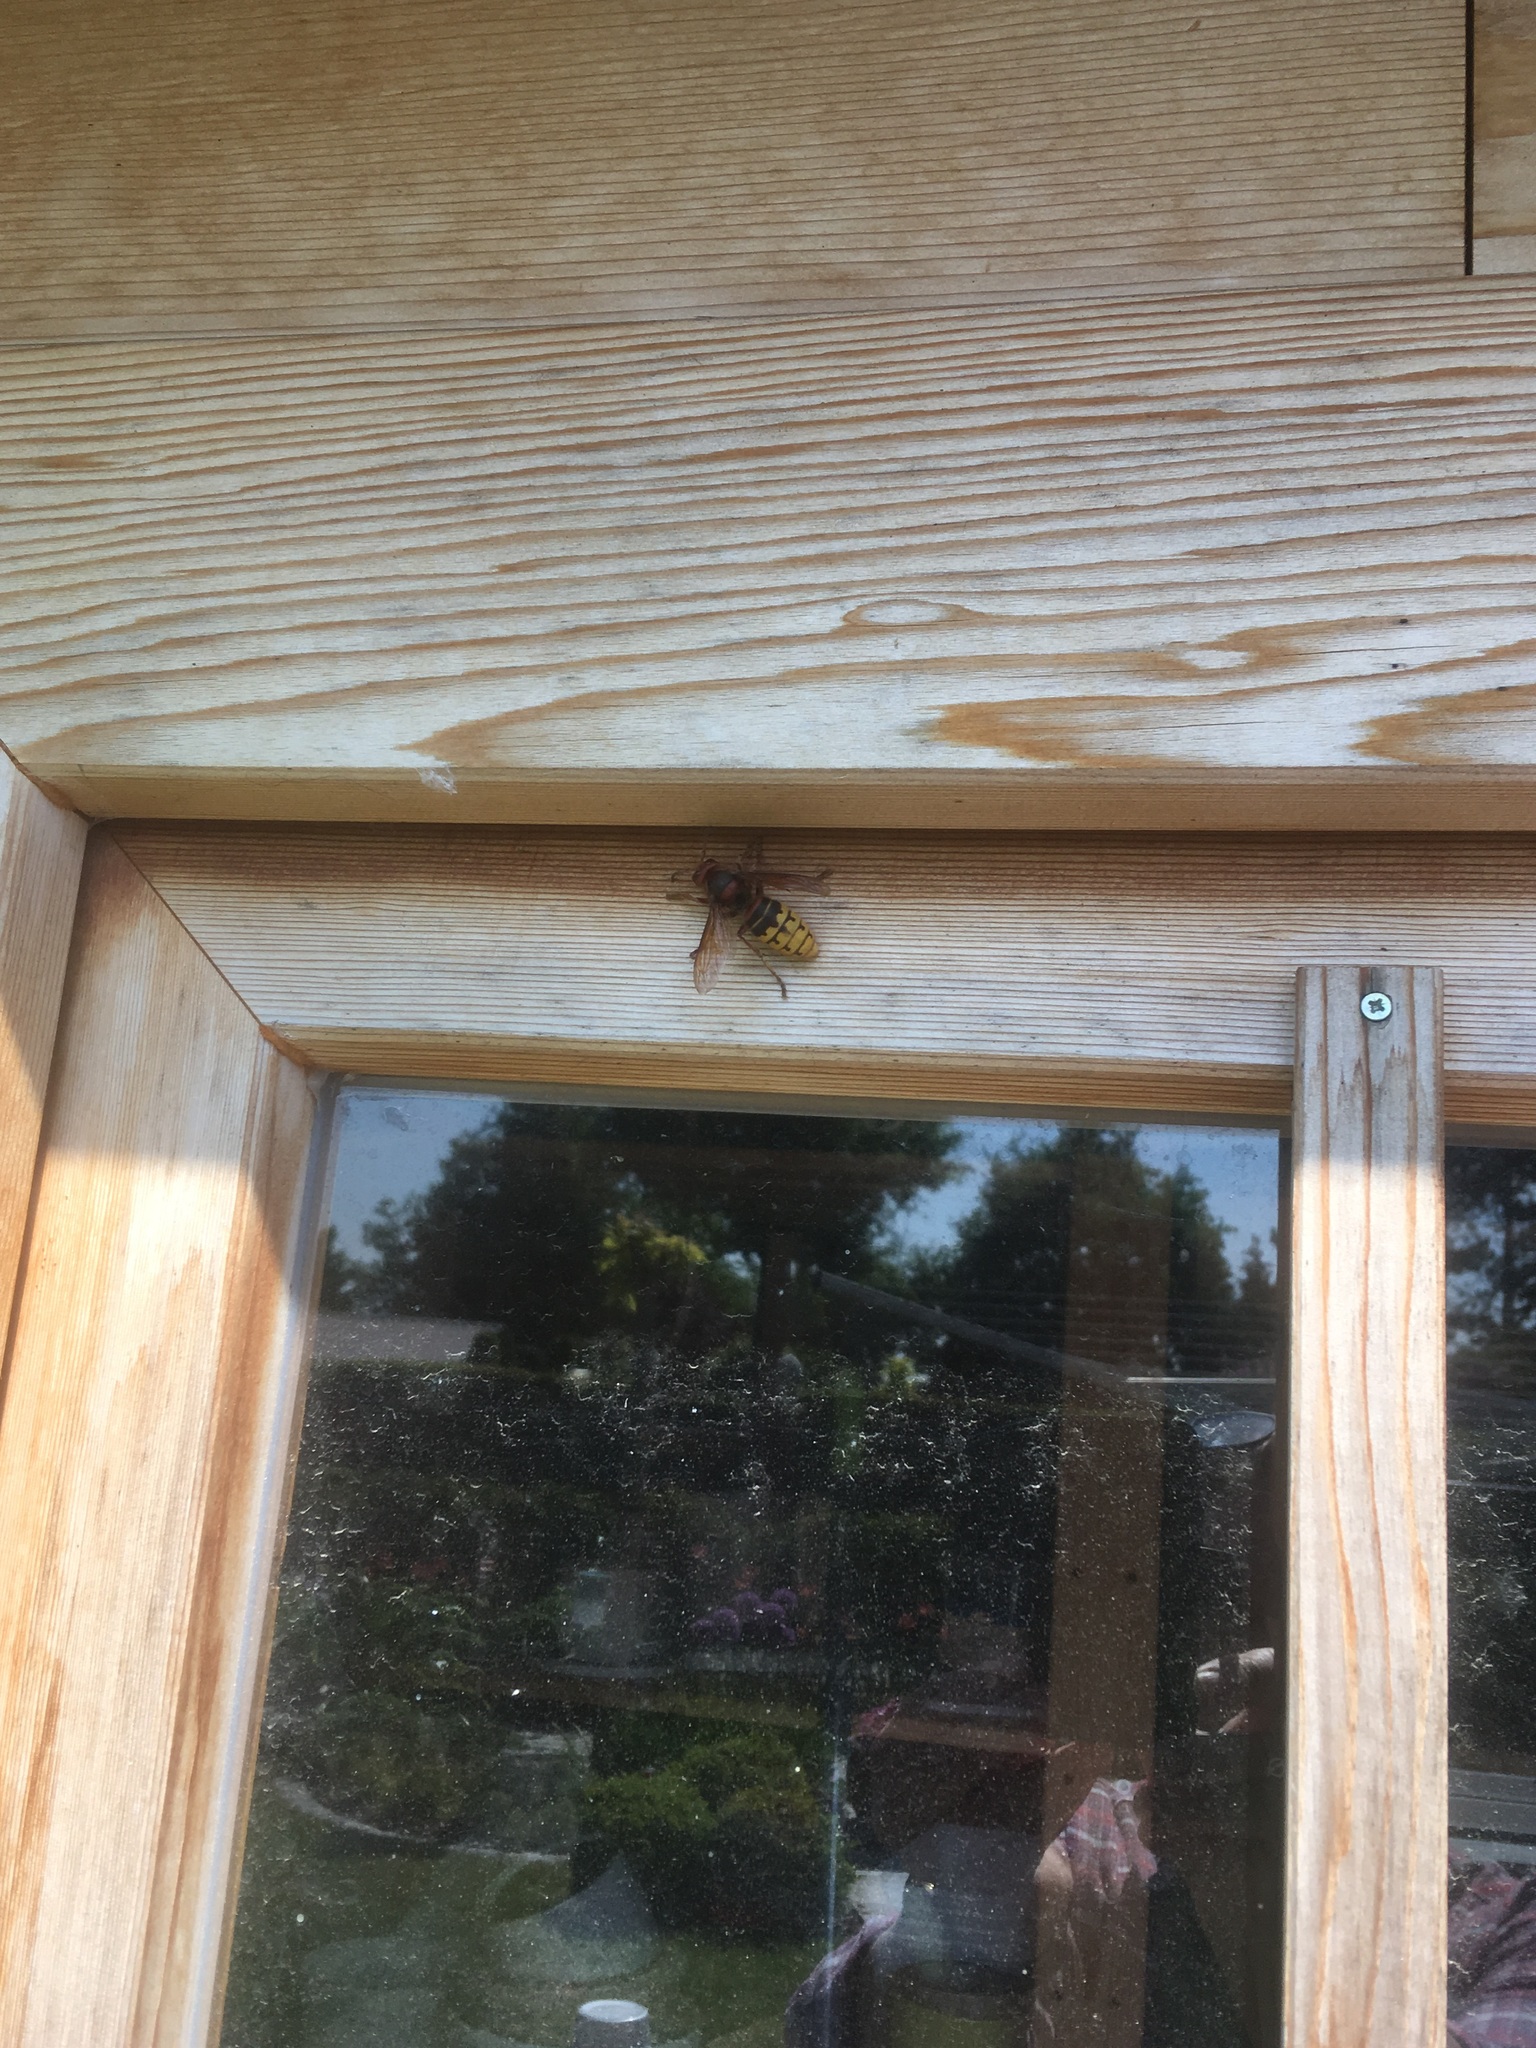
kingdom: Animalia
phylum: Arthropoda
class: Insecta
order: Hymenoptera
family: Vespidae
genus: Vespa
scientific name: Vespa crabro
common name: Hornet
